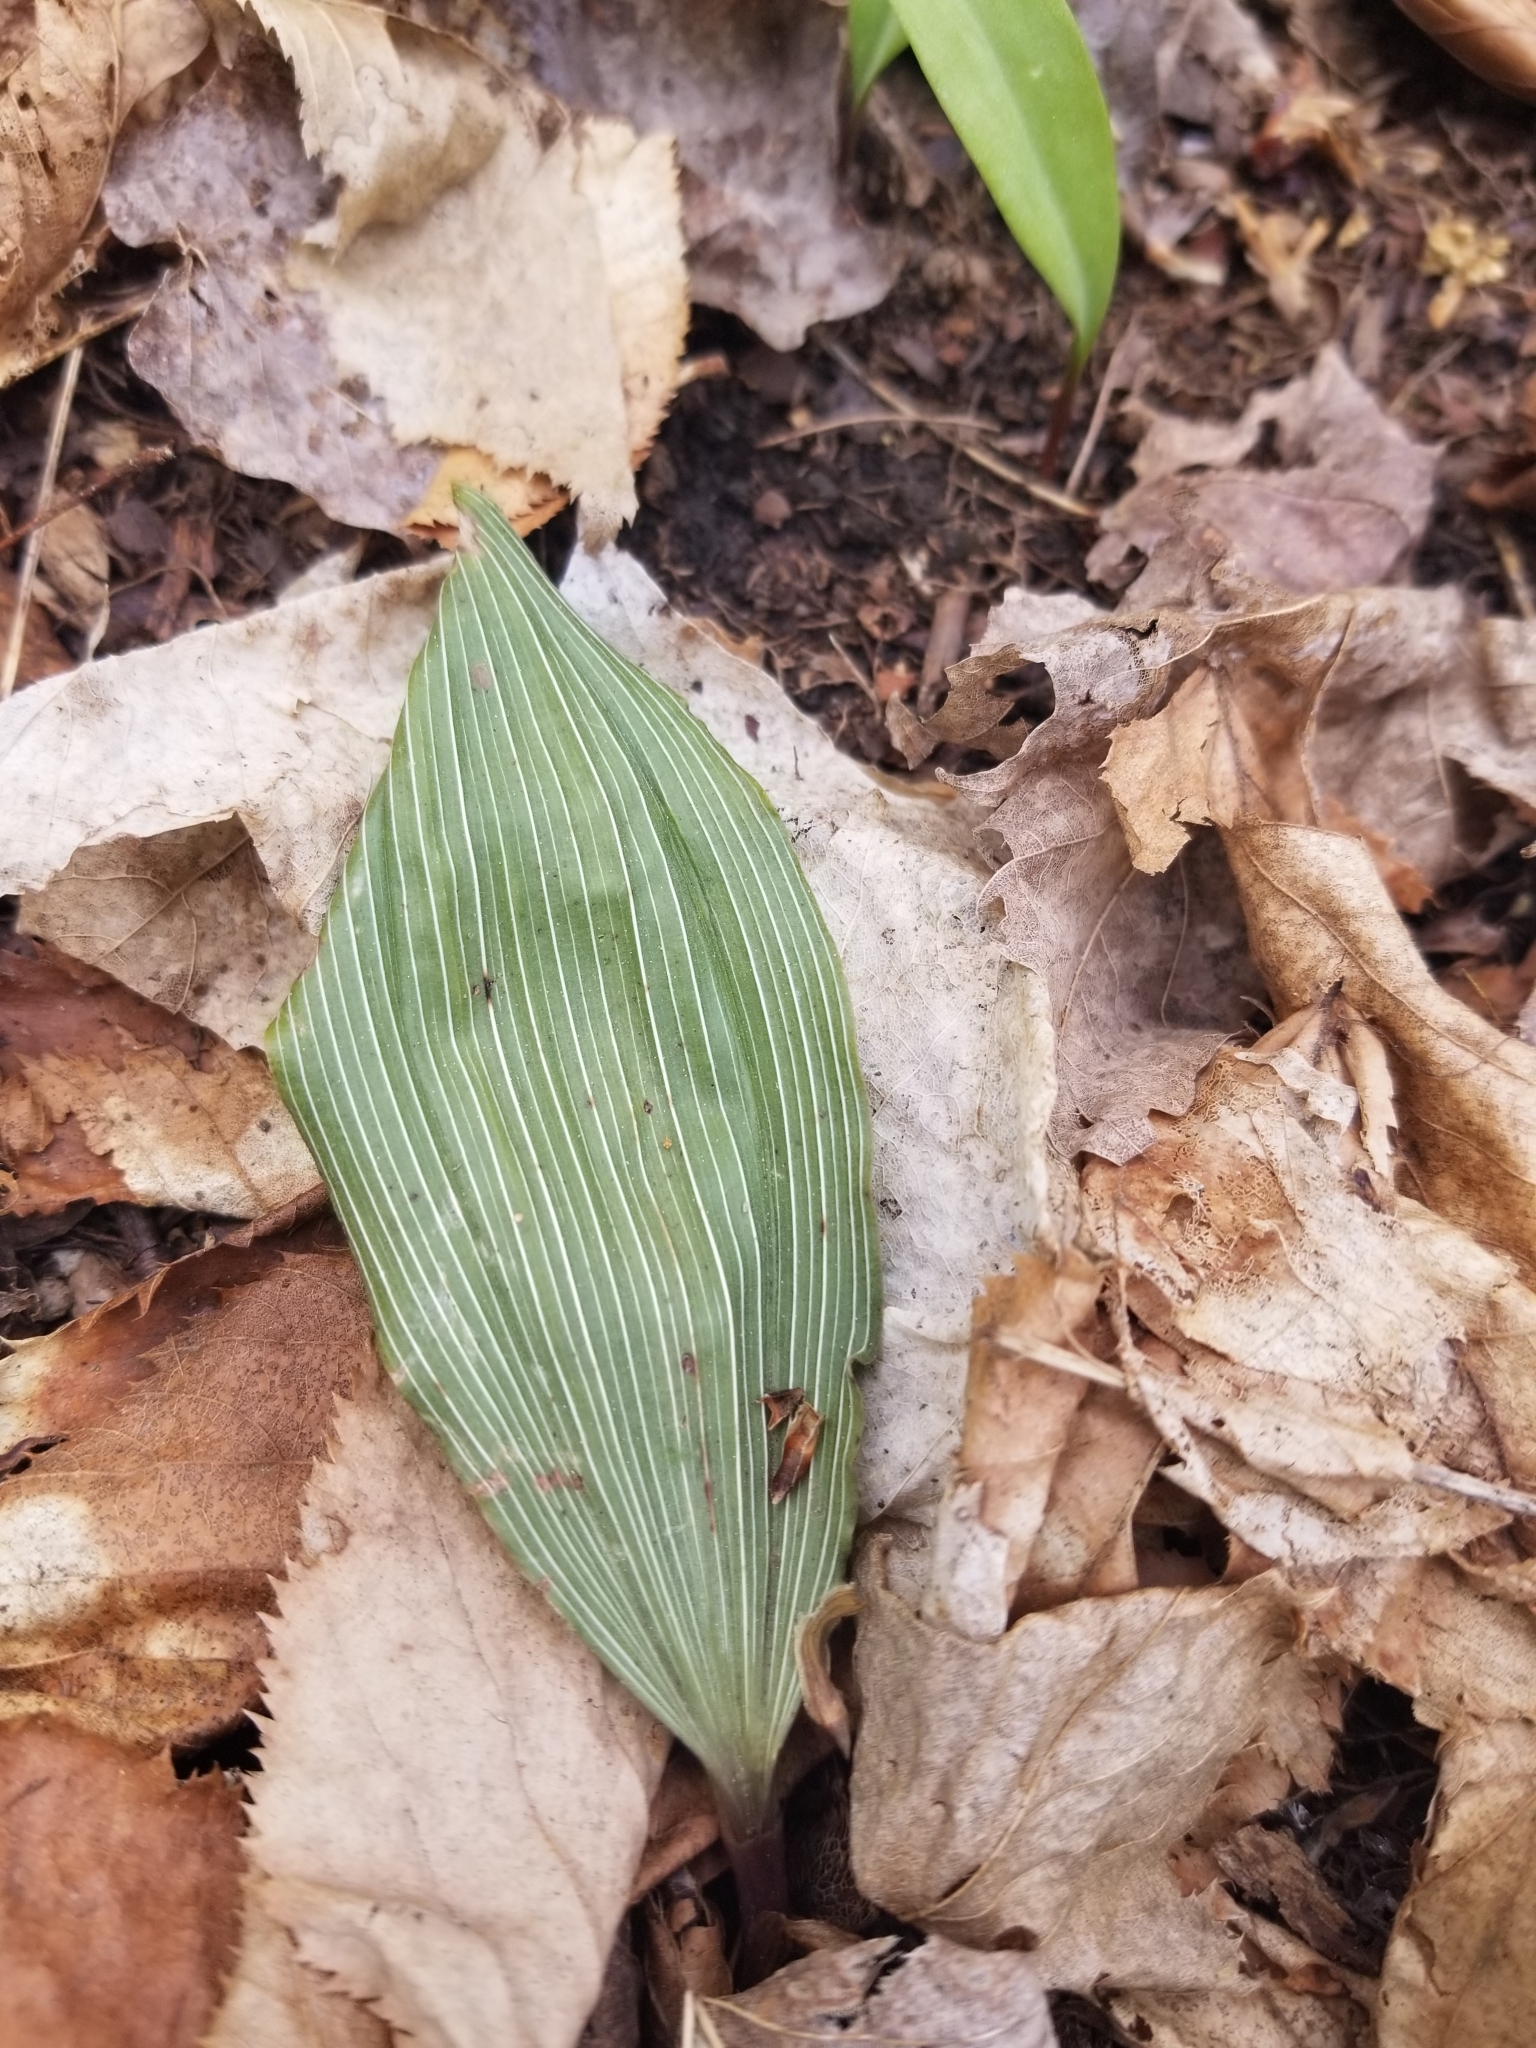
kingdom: Plantae
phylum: Tracheophyta
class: Liliopsida
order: Asparagales
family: Orchidaceae
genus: Aplectrum
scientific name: Aplectrum hyemale
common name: Adam-and-eve
